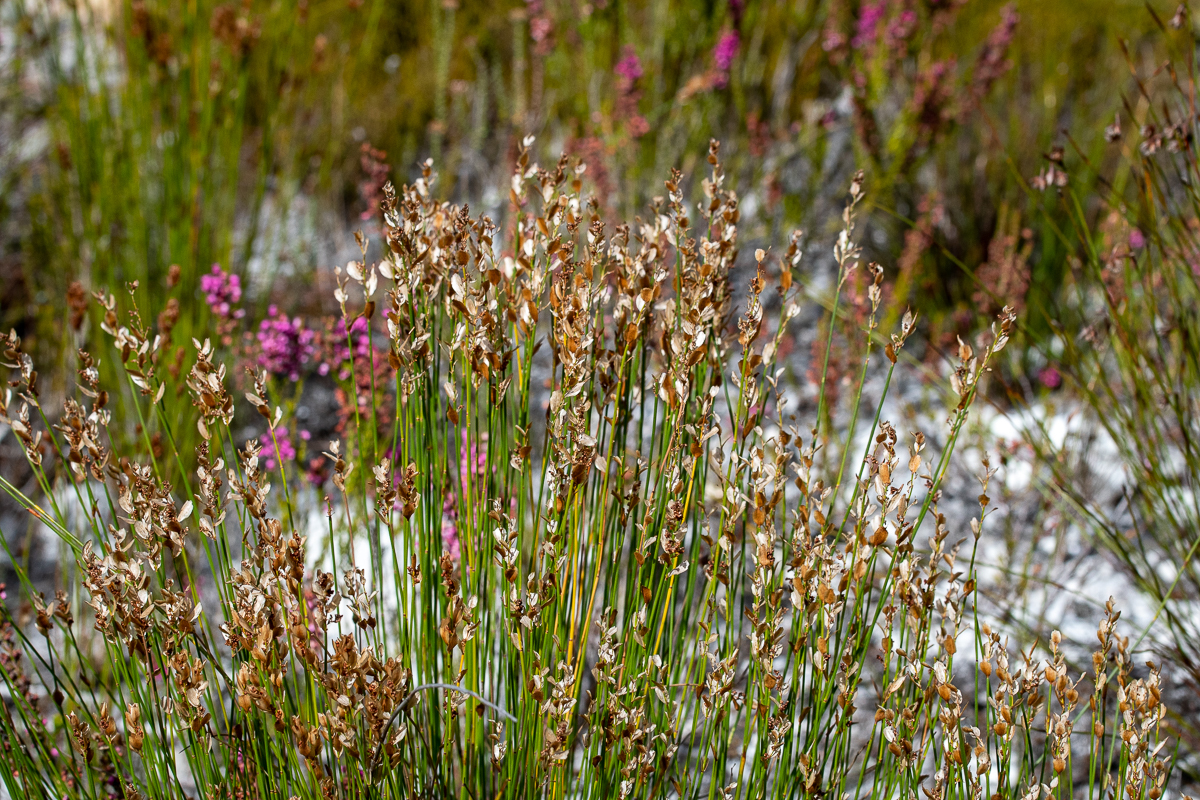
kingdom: Plantae
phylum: Tracheophyta
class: Liliopsida
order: Poales
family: Restionaceae
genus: Elegia
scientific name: Elegia filacea
